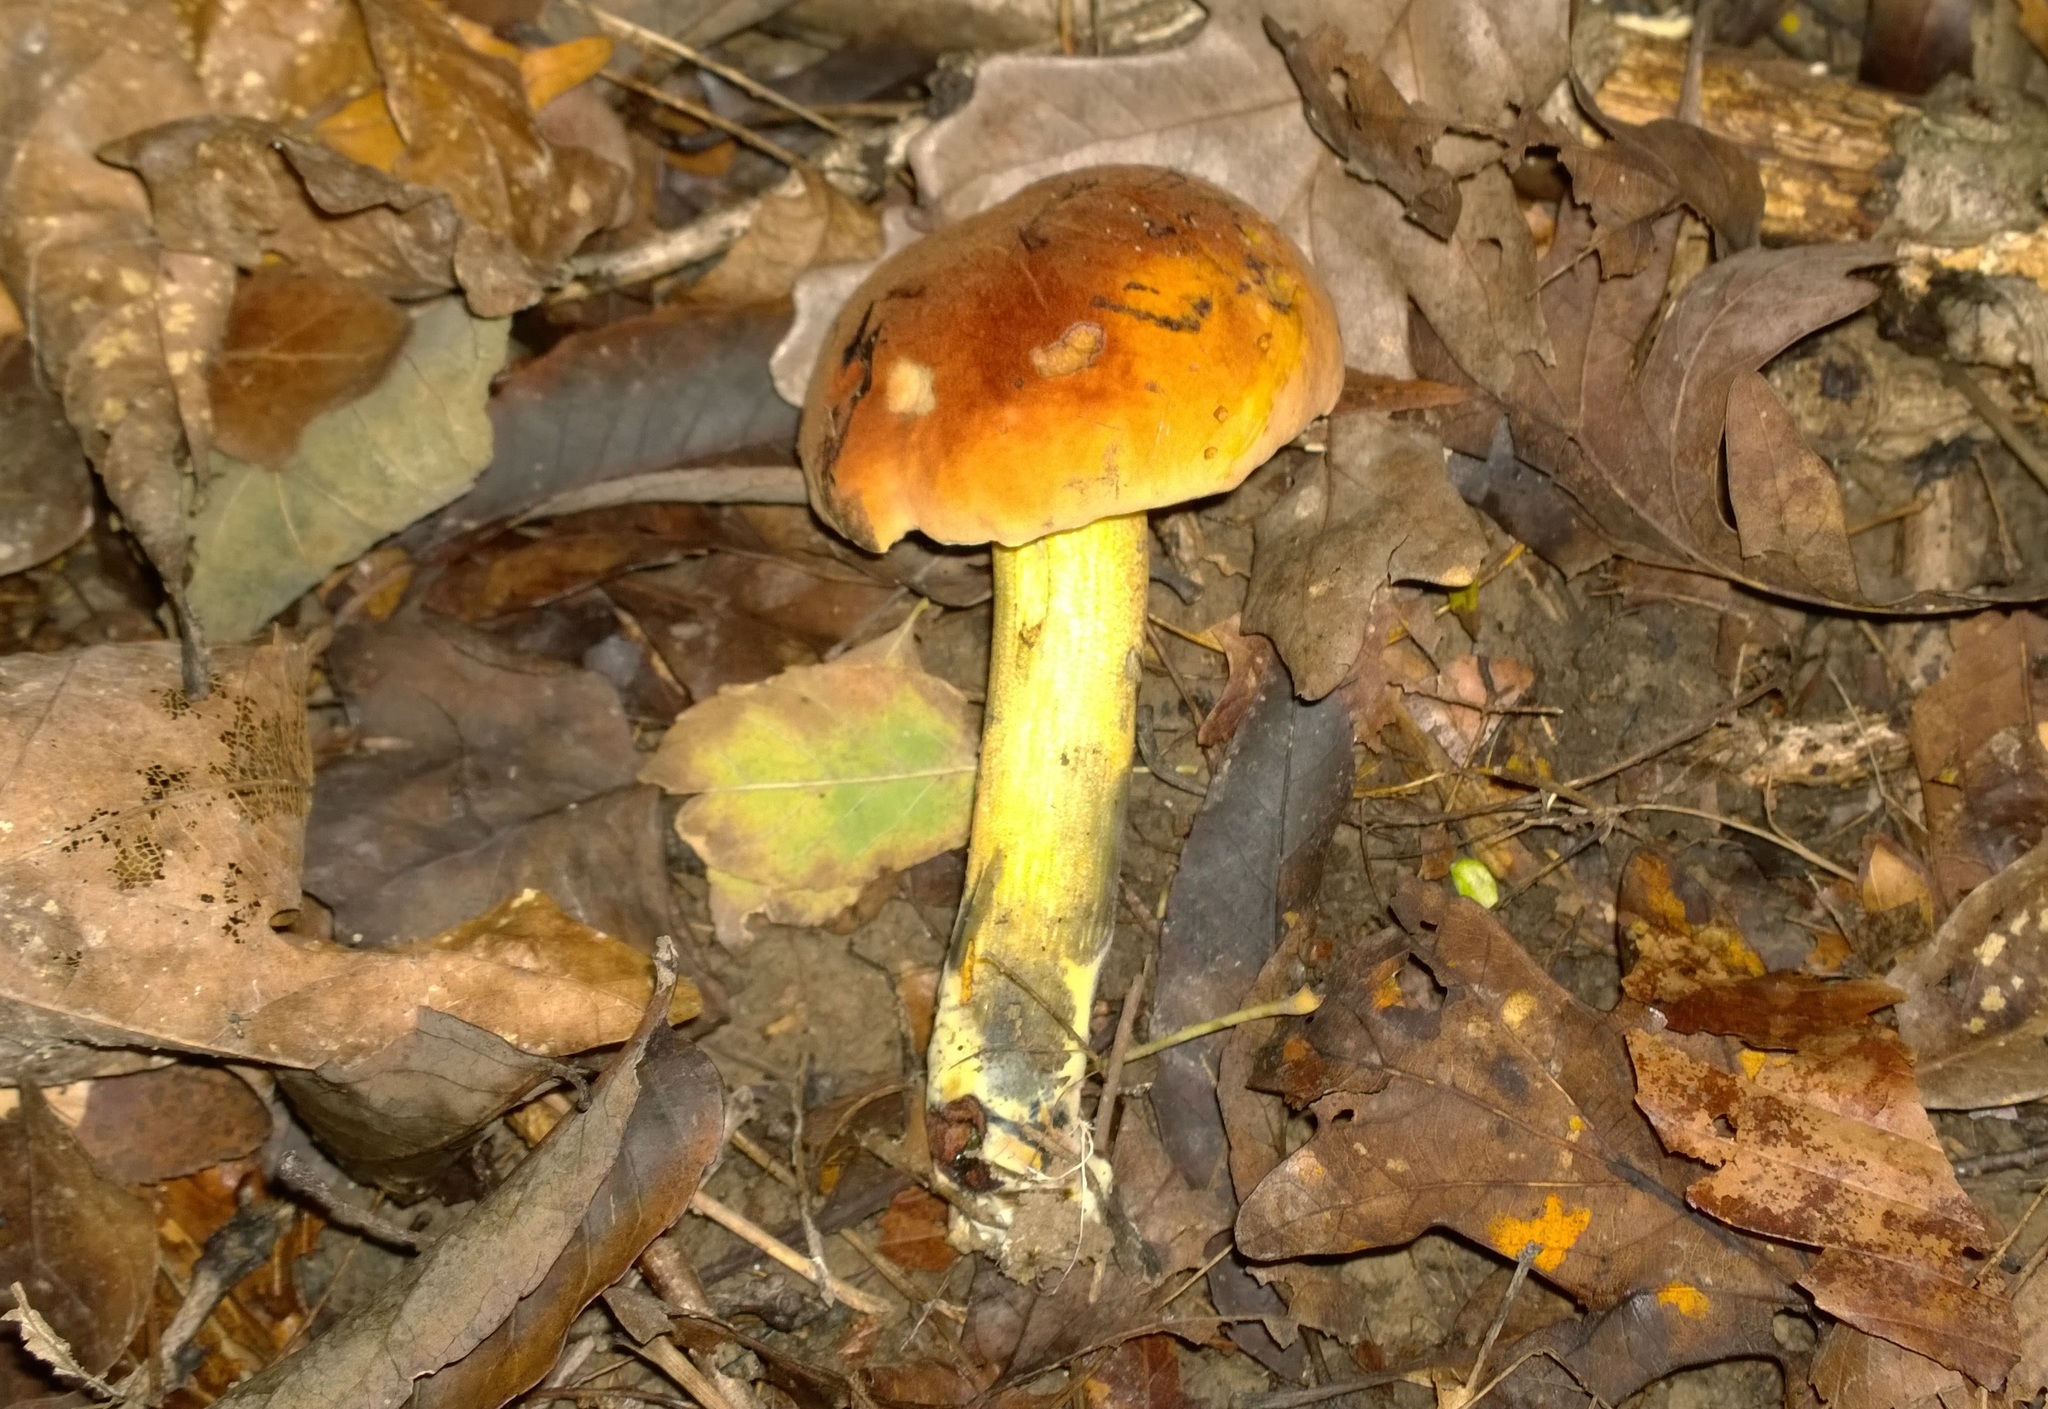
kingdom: Fungi
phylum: Basidiomycota
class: Agaricomycetes
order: Boletales
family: Boletaceae
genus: Boletus
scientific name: Boletus subvelutipes
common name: Red-mouth bolete
